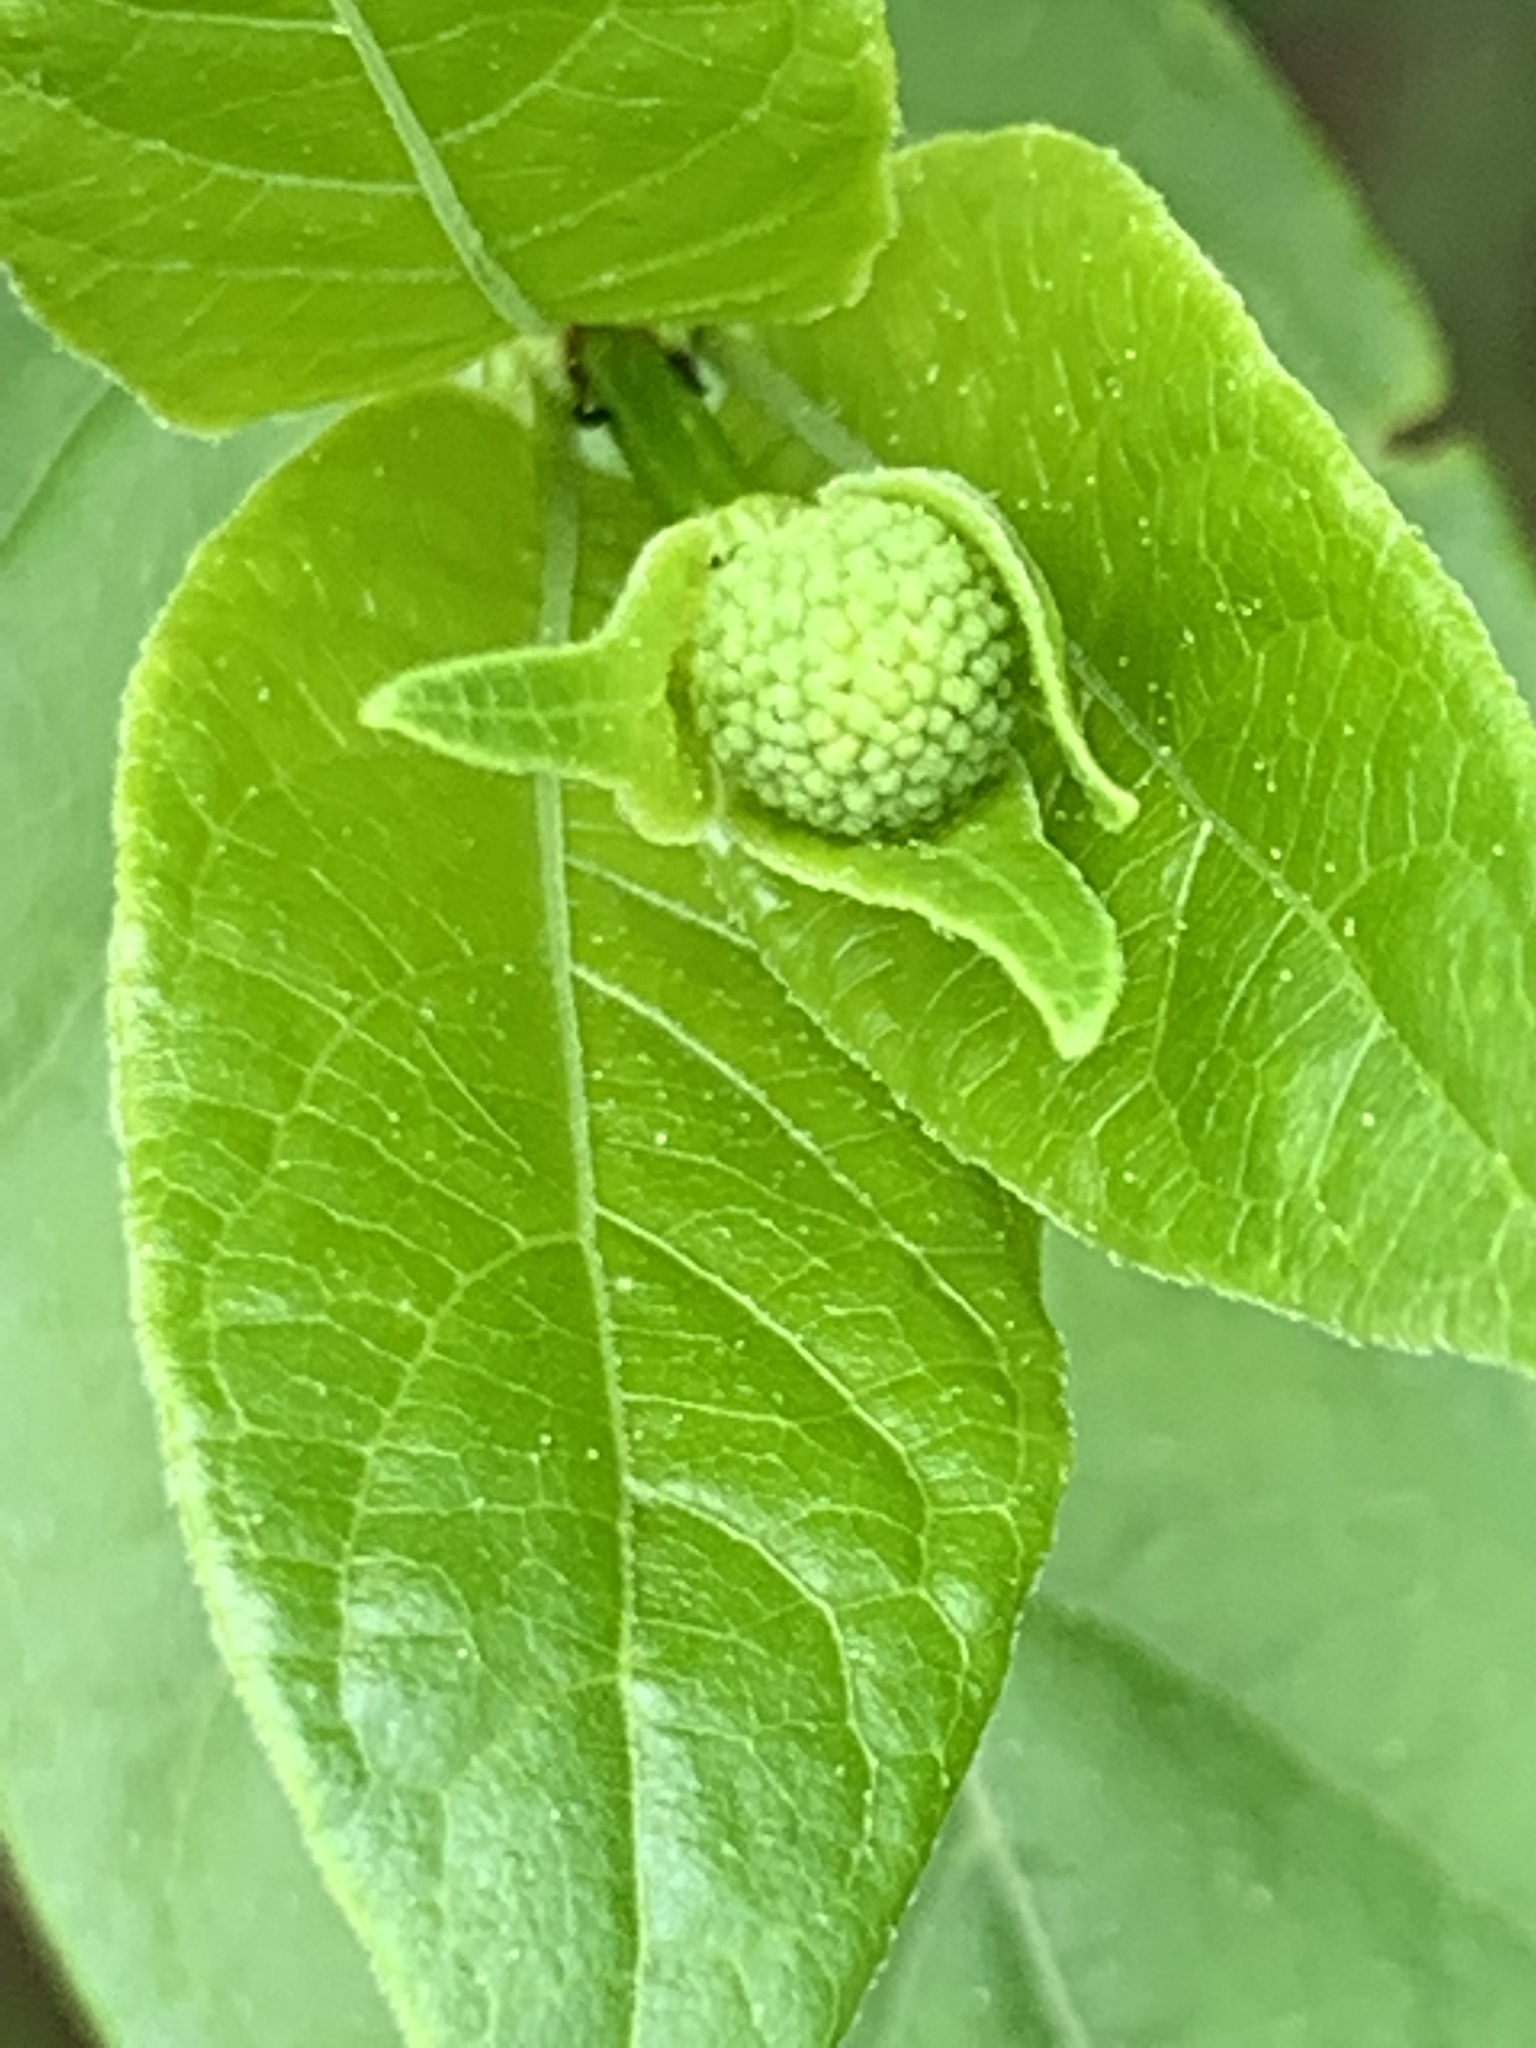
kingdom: Plantae
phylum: Tracheophyta
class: Magnoliopsida
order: Gentianales
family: Rubiaceae
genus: Cephalanthus
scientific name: Cephalanthus occidentalis
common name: Button-willow
